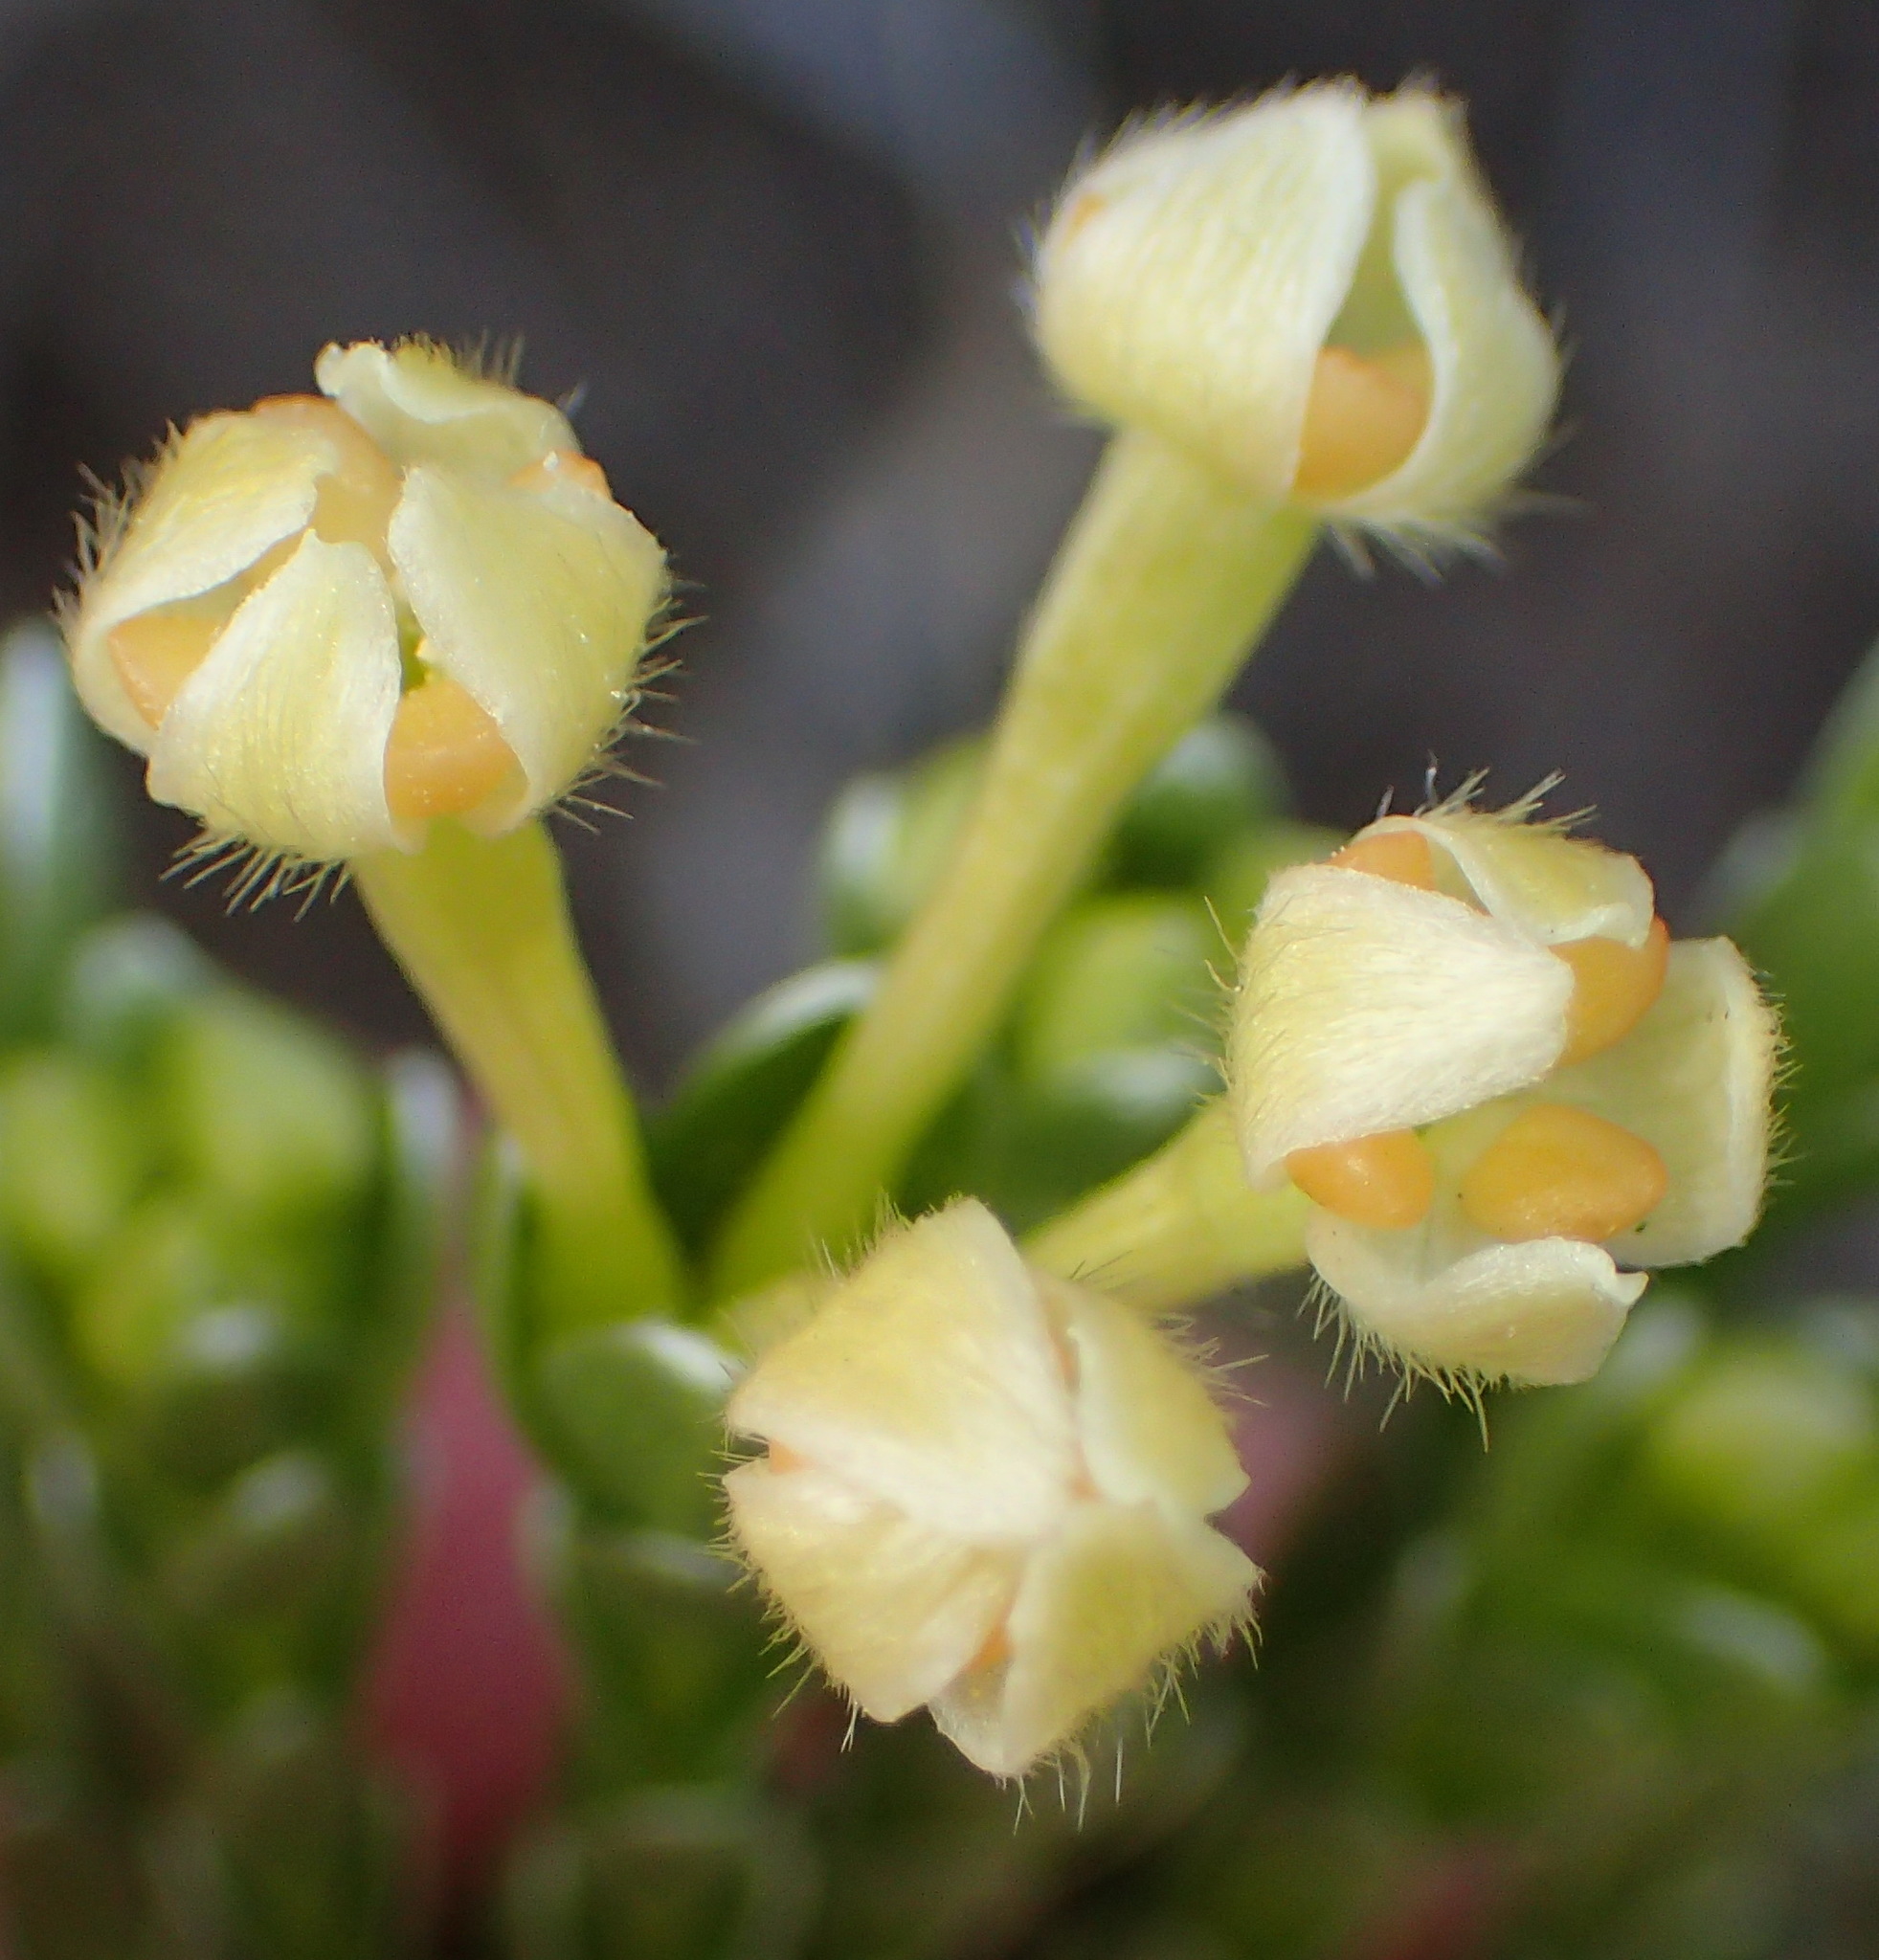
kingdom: Plantae
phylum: Tracheophyta
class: Magnoliopsida
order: Malvales
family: Thymelaeaceae
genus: Gnidia
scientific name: Gnidia chrysophylla
